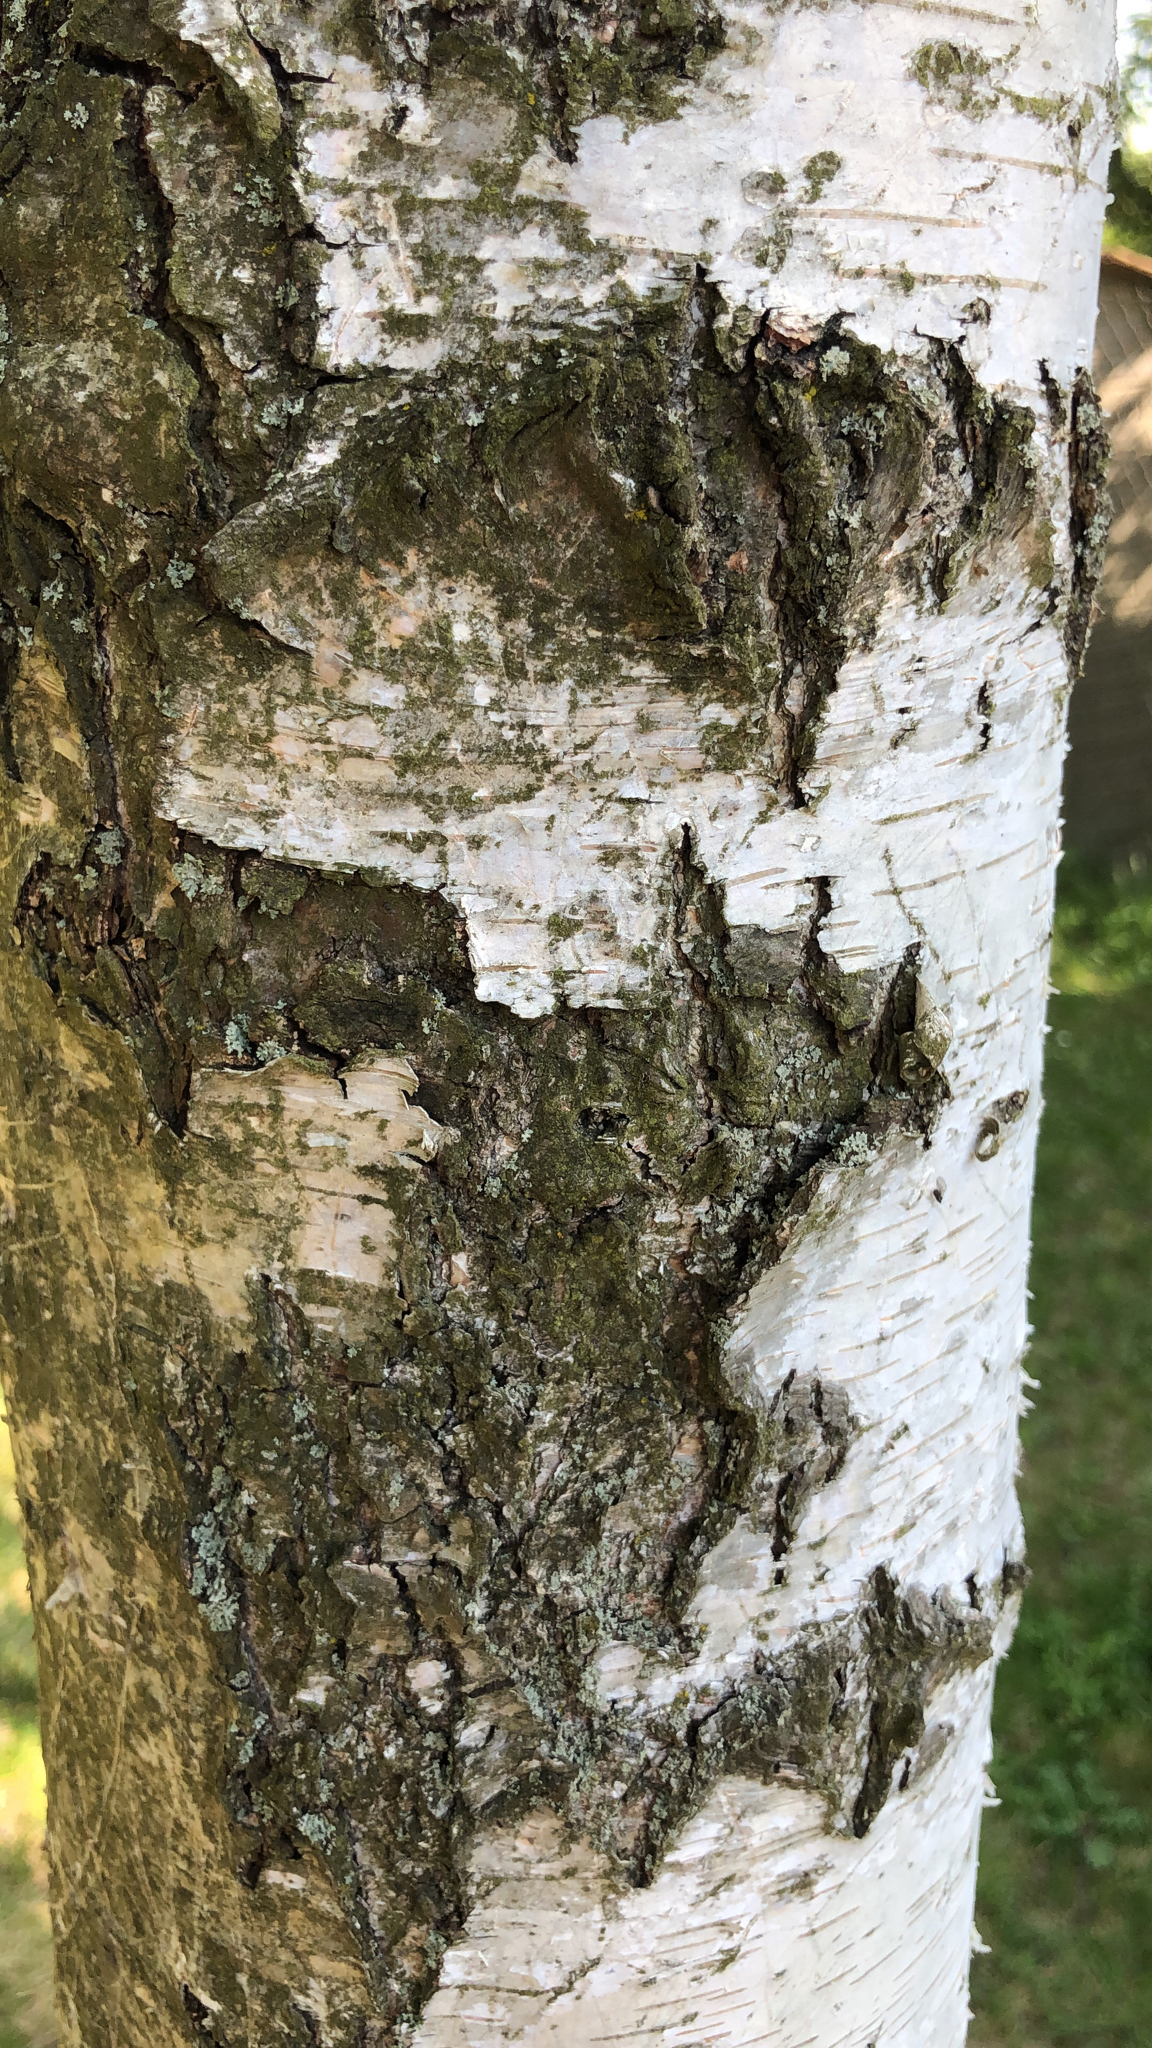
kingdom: Plantae
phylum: Tracheophyta
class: Magnoliopsida
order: Fagales
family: Betulaceae
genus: Betula
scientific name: Betula pendula
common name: Silver birch
